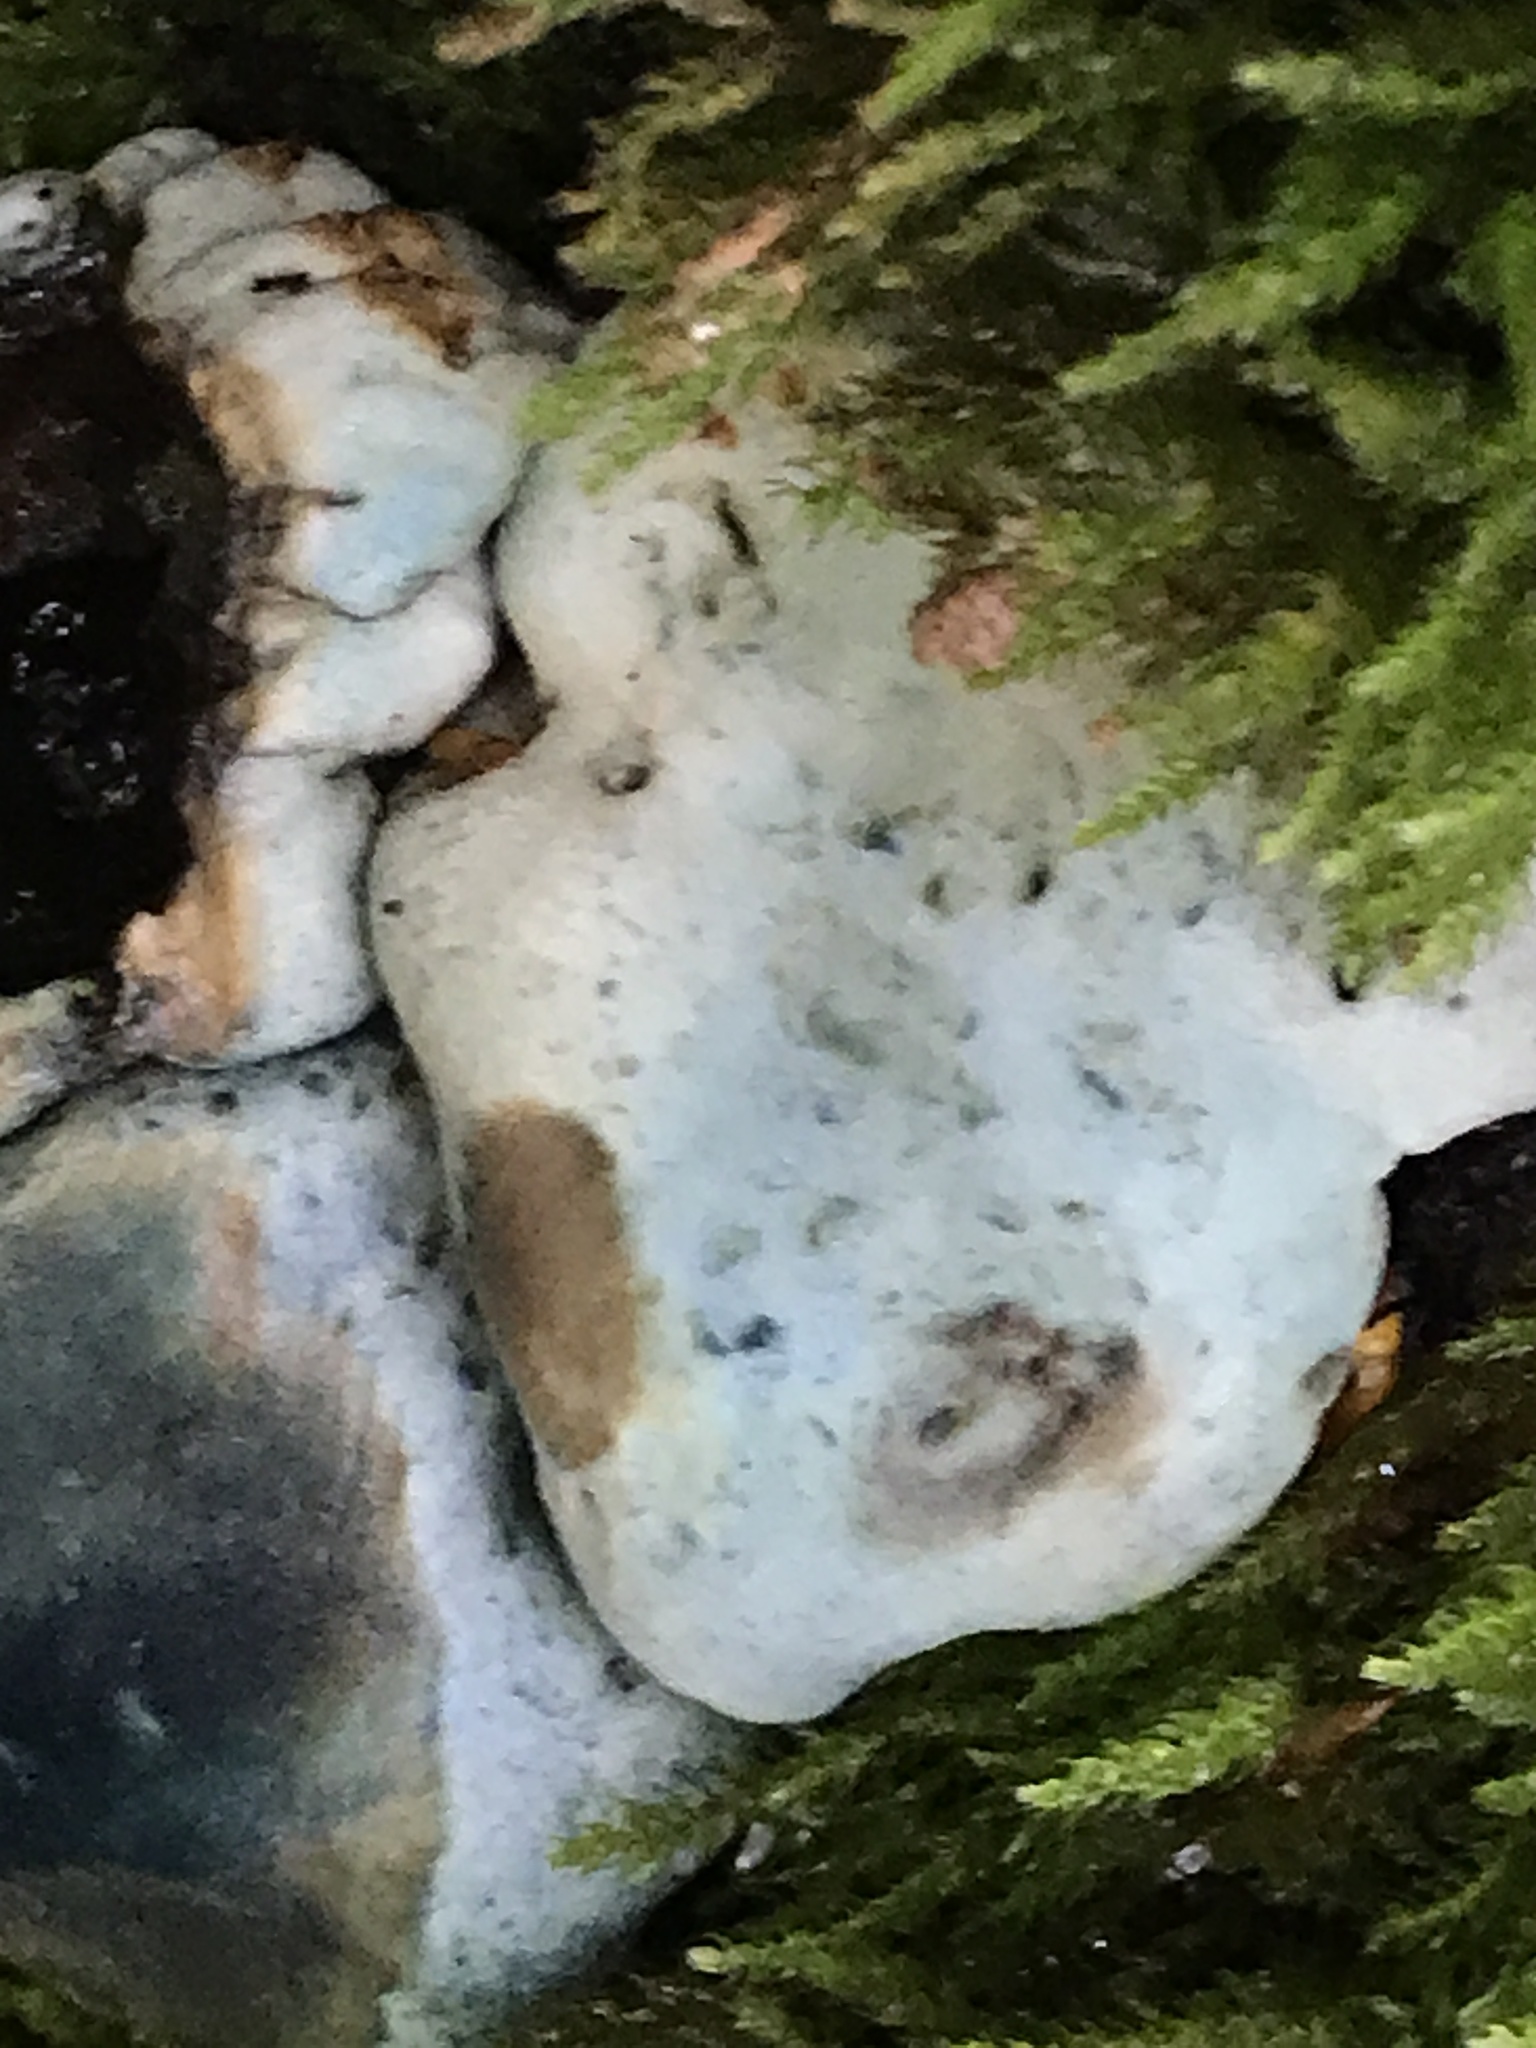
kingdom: Fungi
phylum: Basidiomycota
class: Agaricomycetes
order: Boletales
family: Boletaceae
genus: Leccinum
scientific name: Leccinum pachyderme
